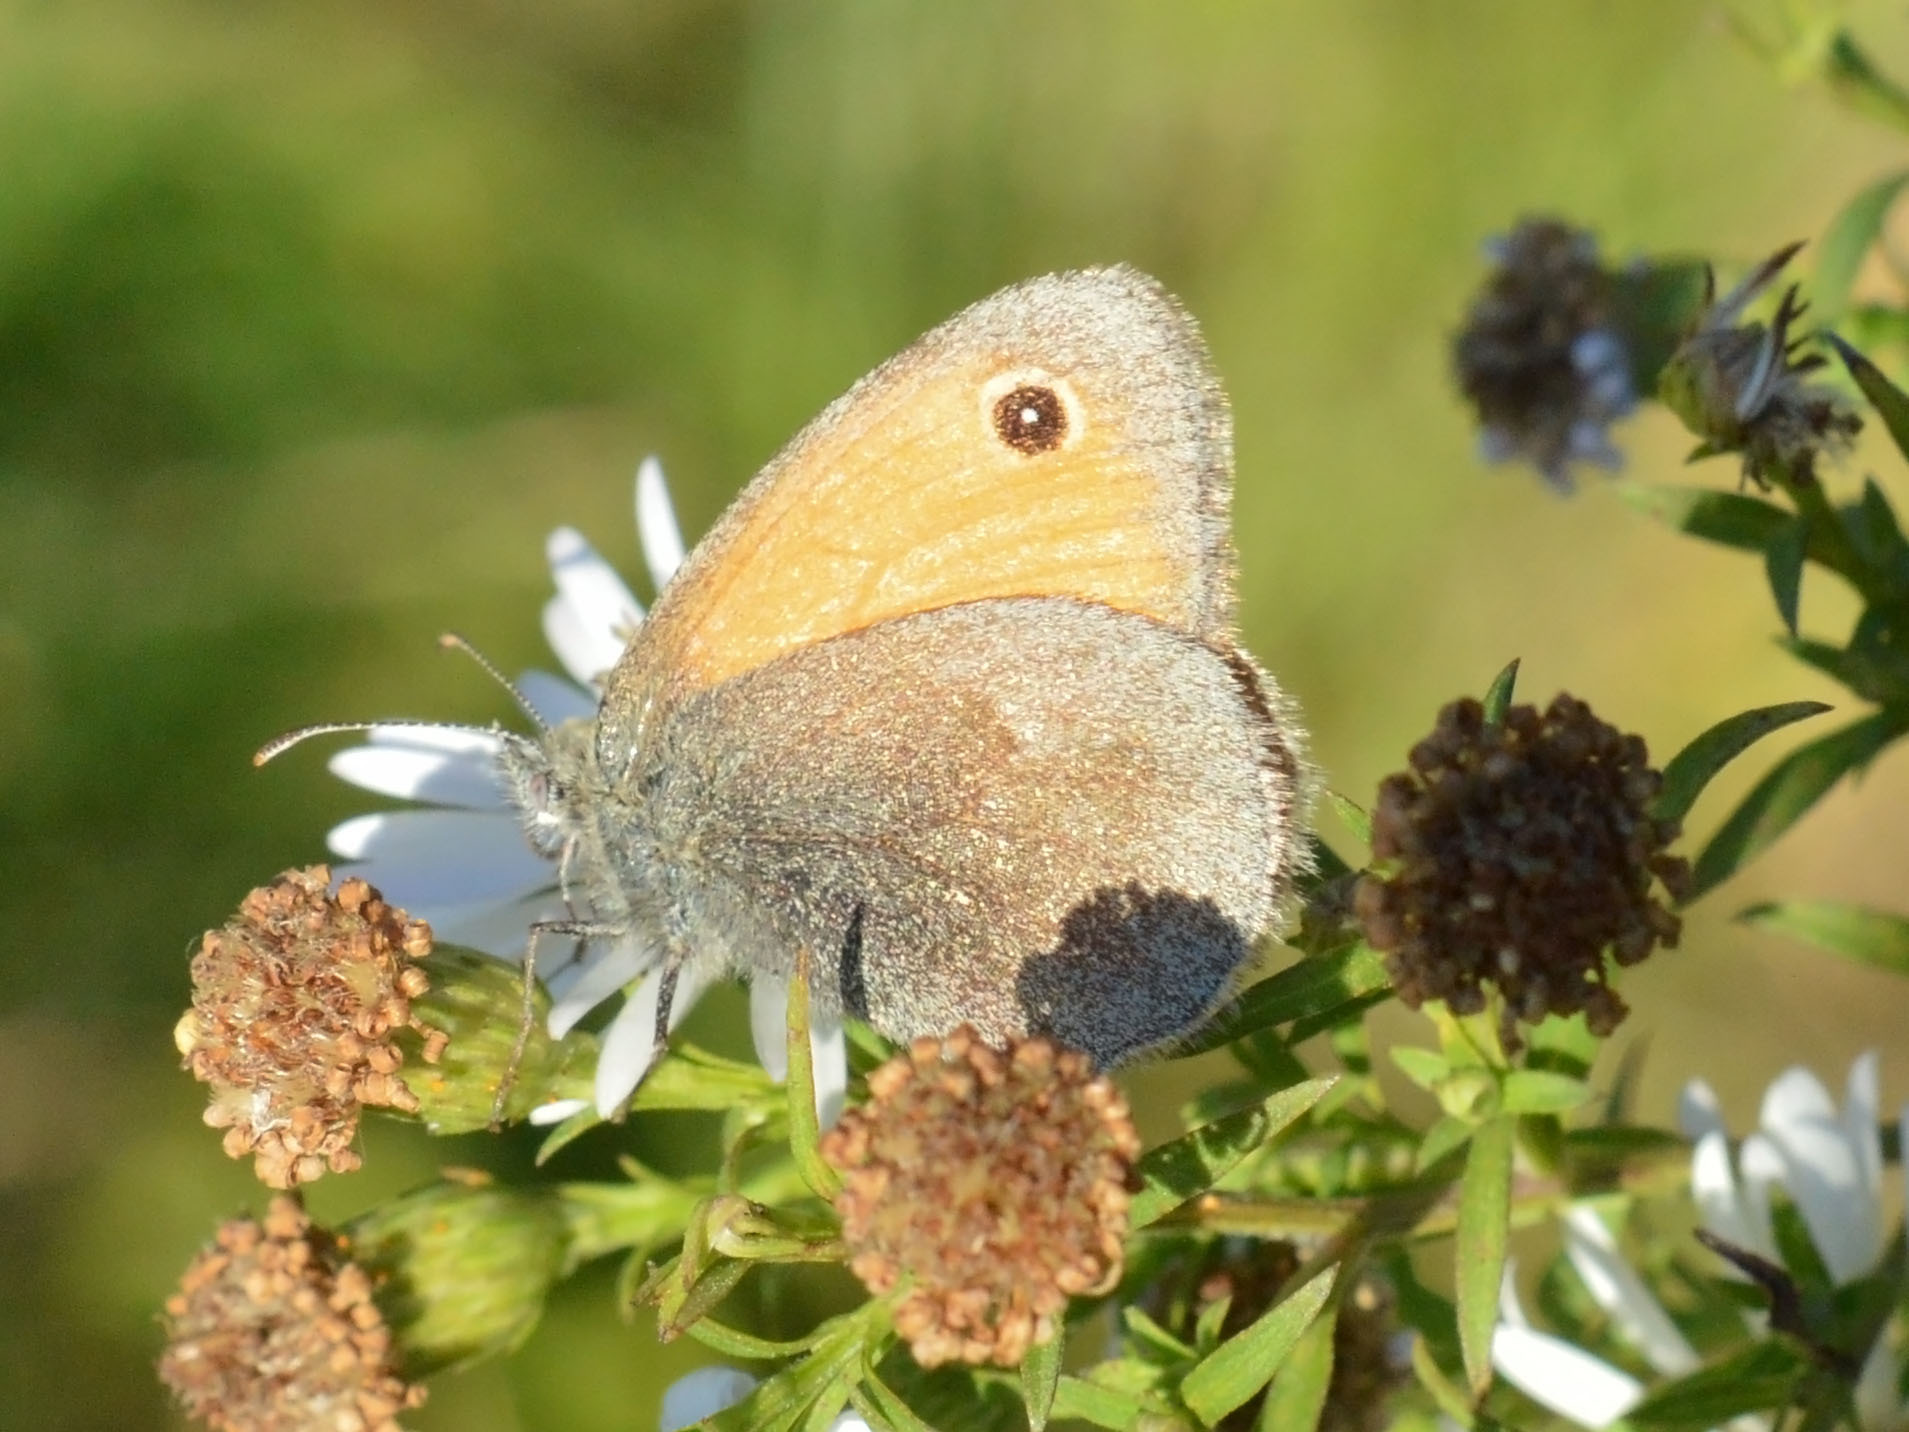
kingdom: Animalia
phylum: Arthropoda
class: Insecta
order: Lepidoptera
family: Nymphalidae
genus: Coenonympha
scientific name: Coenonympha pamphilus
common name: Small heath
